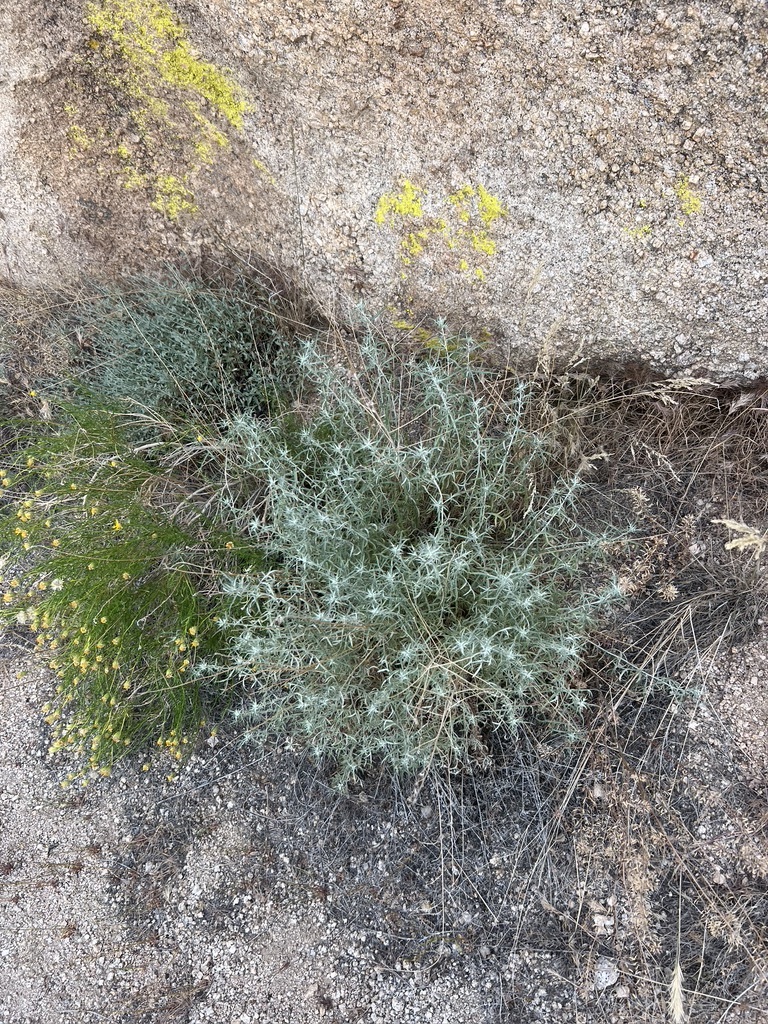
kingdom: Plantae
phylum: Tracheophyta
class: Magnoliopsida
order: Asterales
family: Asteraceae
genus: Artemisia
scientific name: Artemisia ludoviciana
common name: Western mugwort
